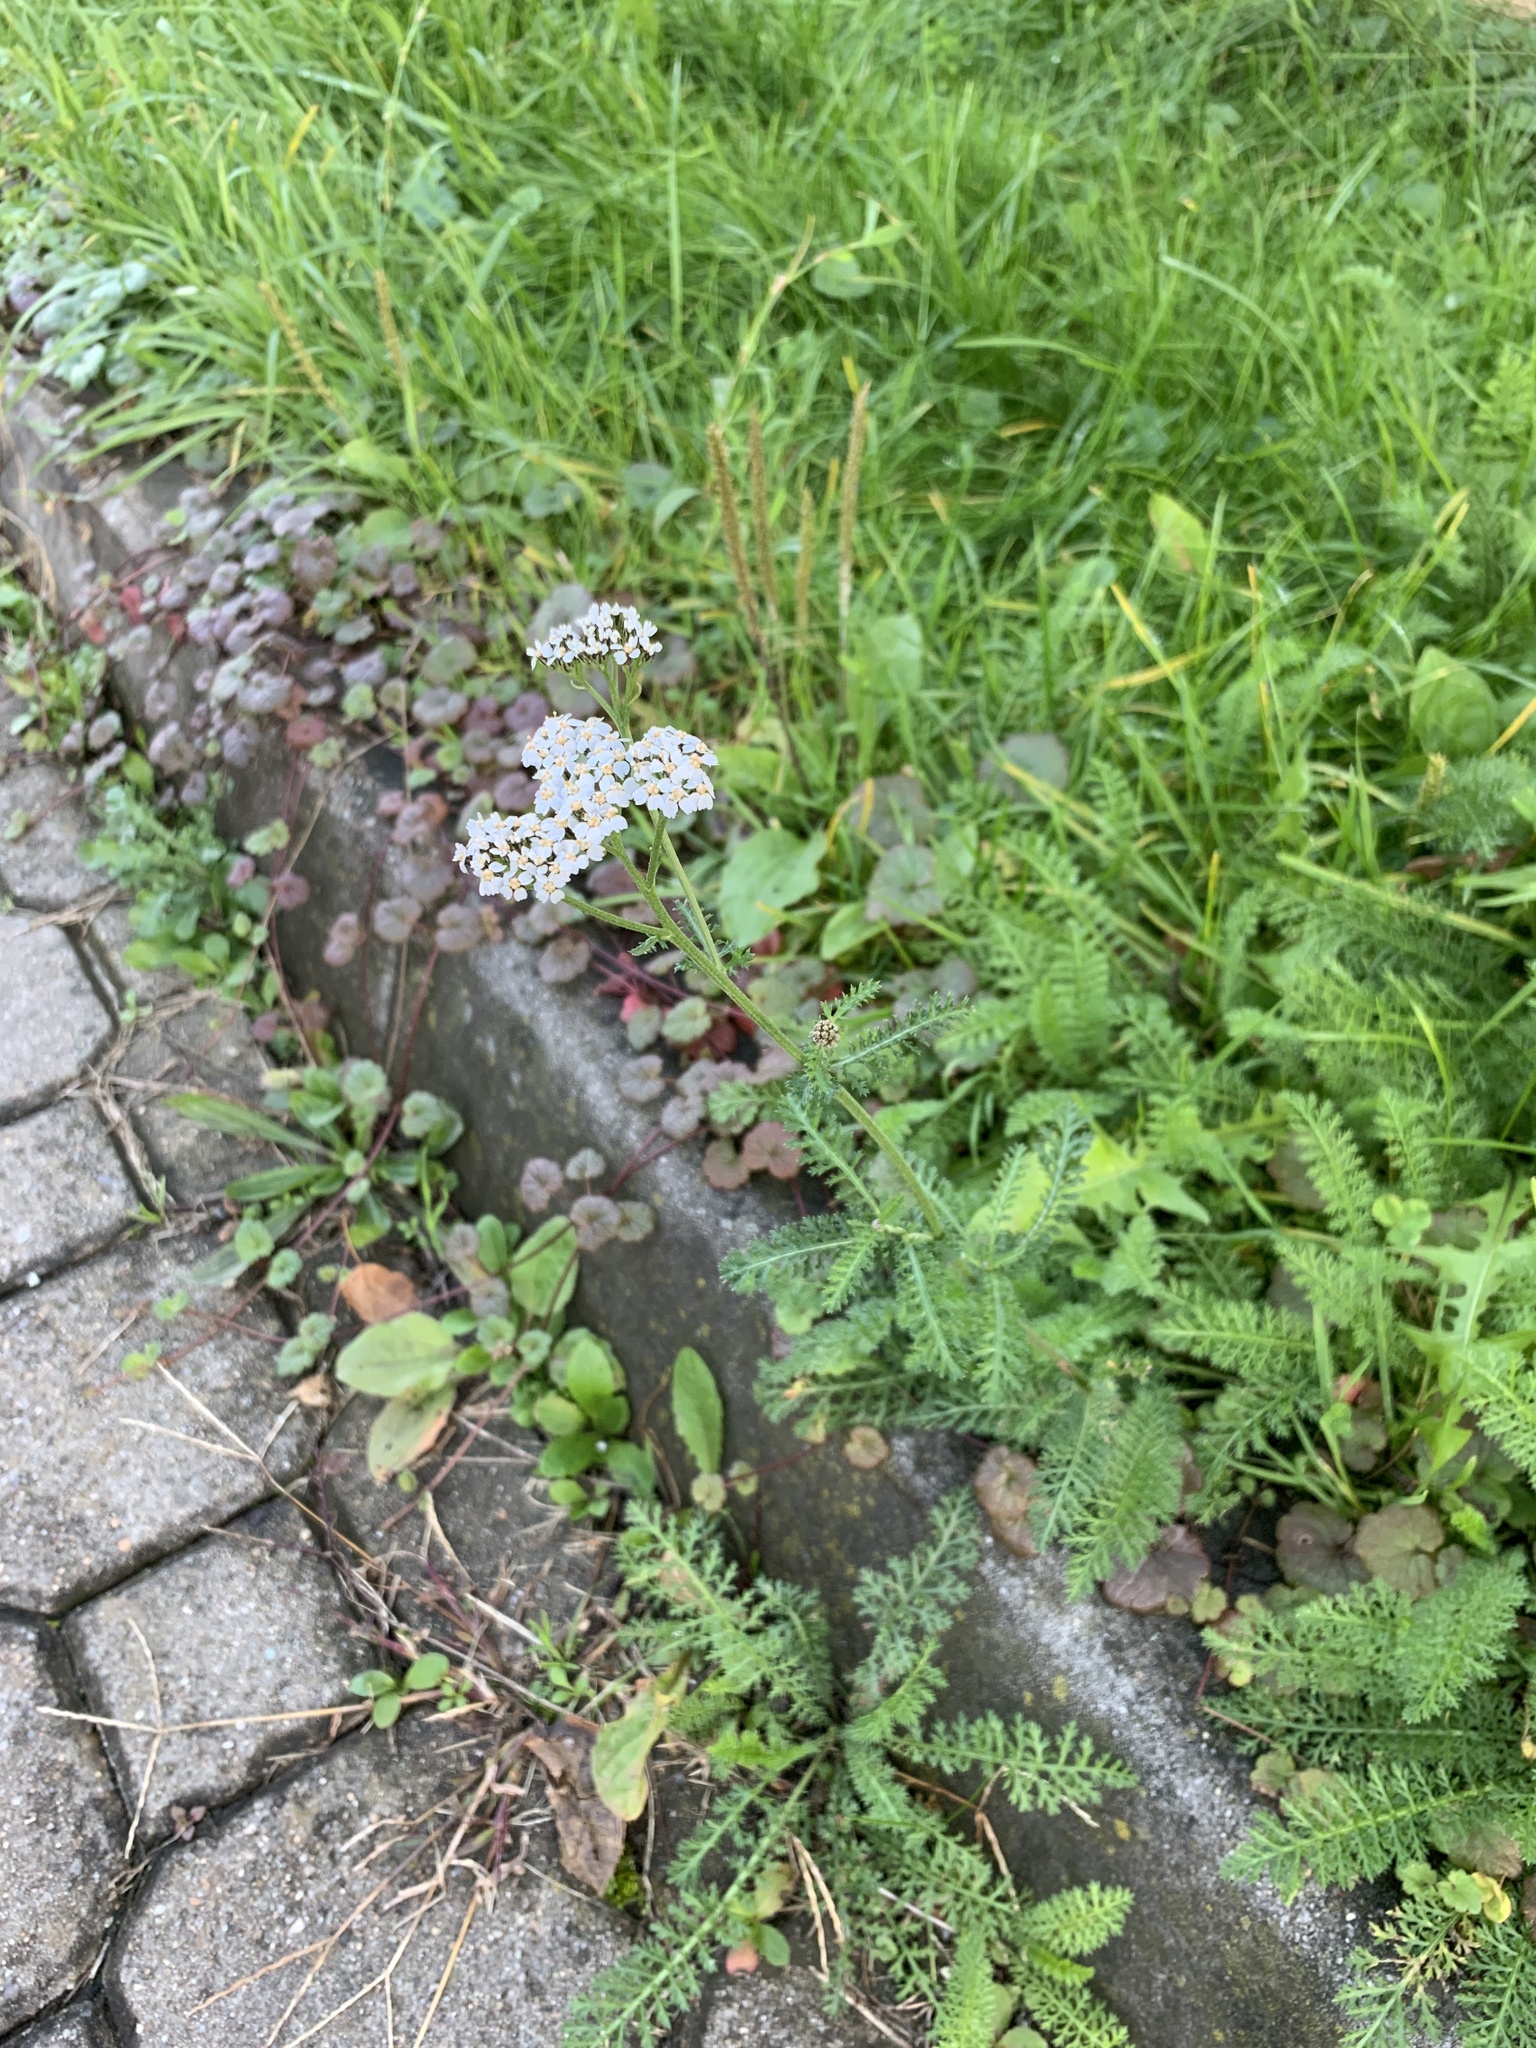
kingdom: Plantae
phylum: Tracheophyta
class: Magnoliopsida
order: Asterales
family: Asteraceae
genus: Achillea
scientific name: Achillea millefolium
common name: Yarrow
